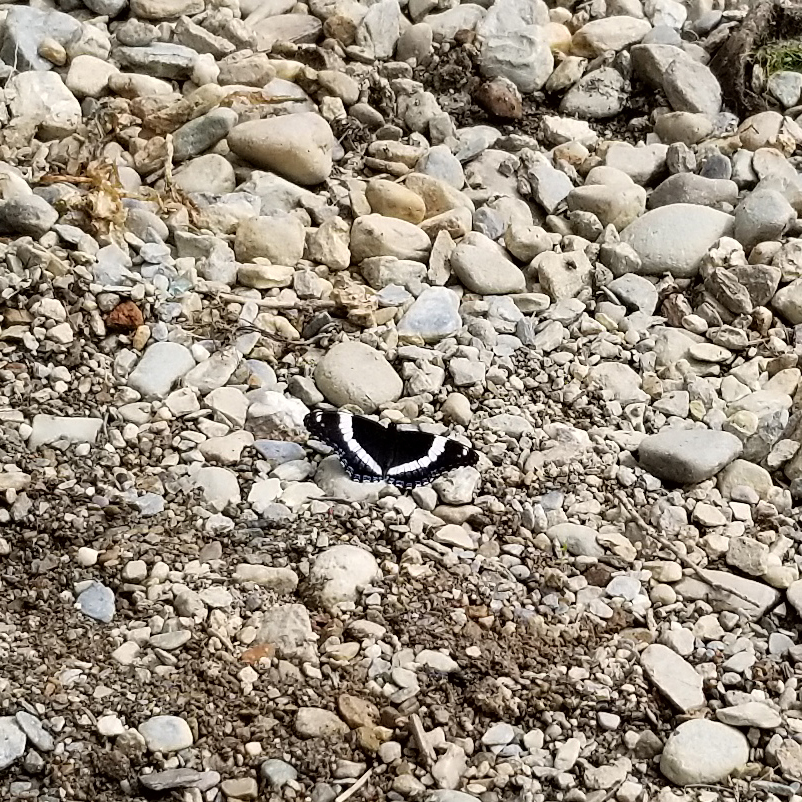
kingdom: Animalia
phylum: Arthropoda
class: Insecta
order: Lepidoptera
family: Nymphalidae
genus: Limenitis
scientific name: Limenitis arthemis
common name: Red-spotted admiral
